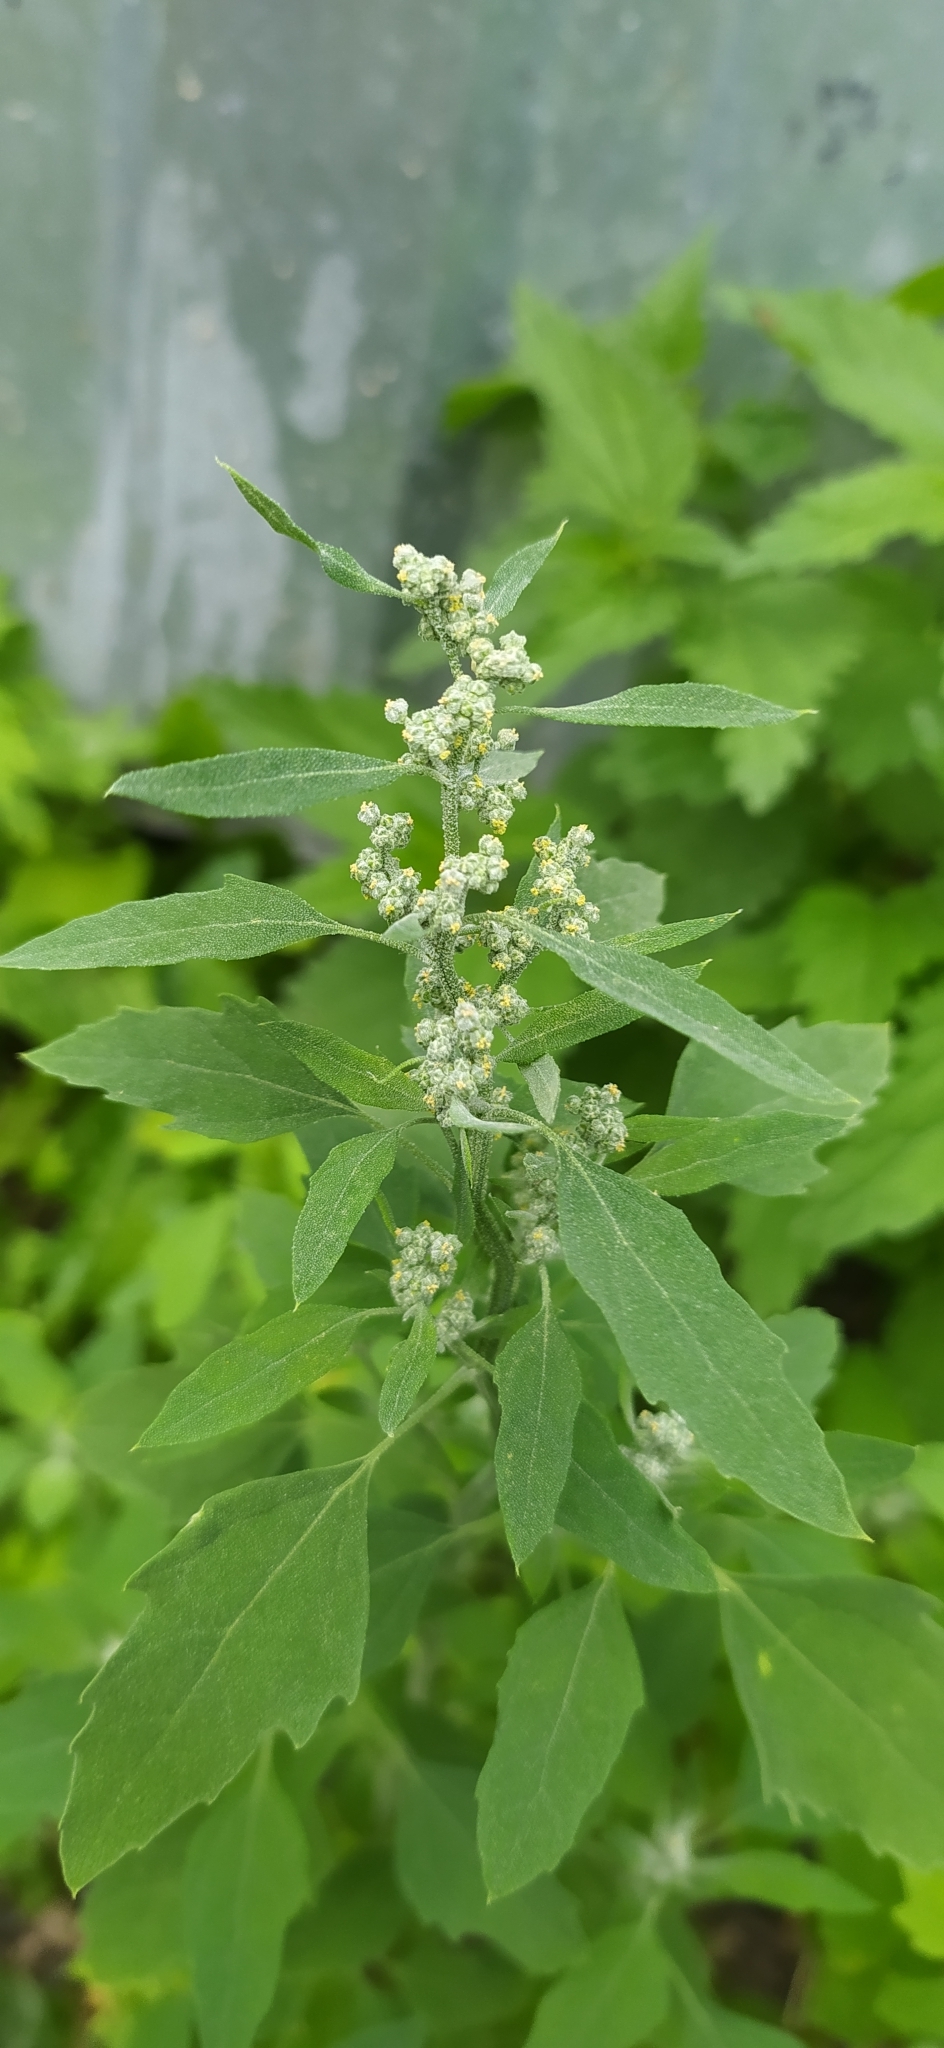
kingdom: Plantae
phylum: Tracheophyta
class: Magnoliopsida
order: Caryophyllales
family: Amaranthaceae
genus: Chenopodium
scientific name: Chenopodium album
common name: Fat-hen
